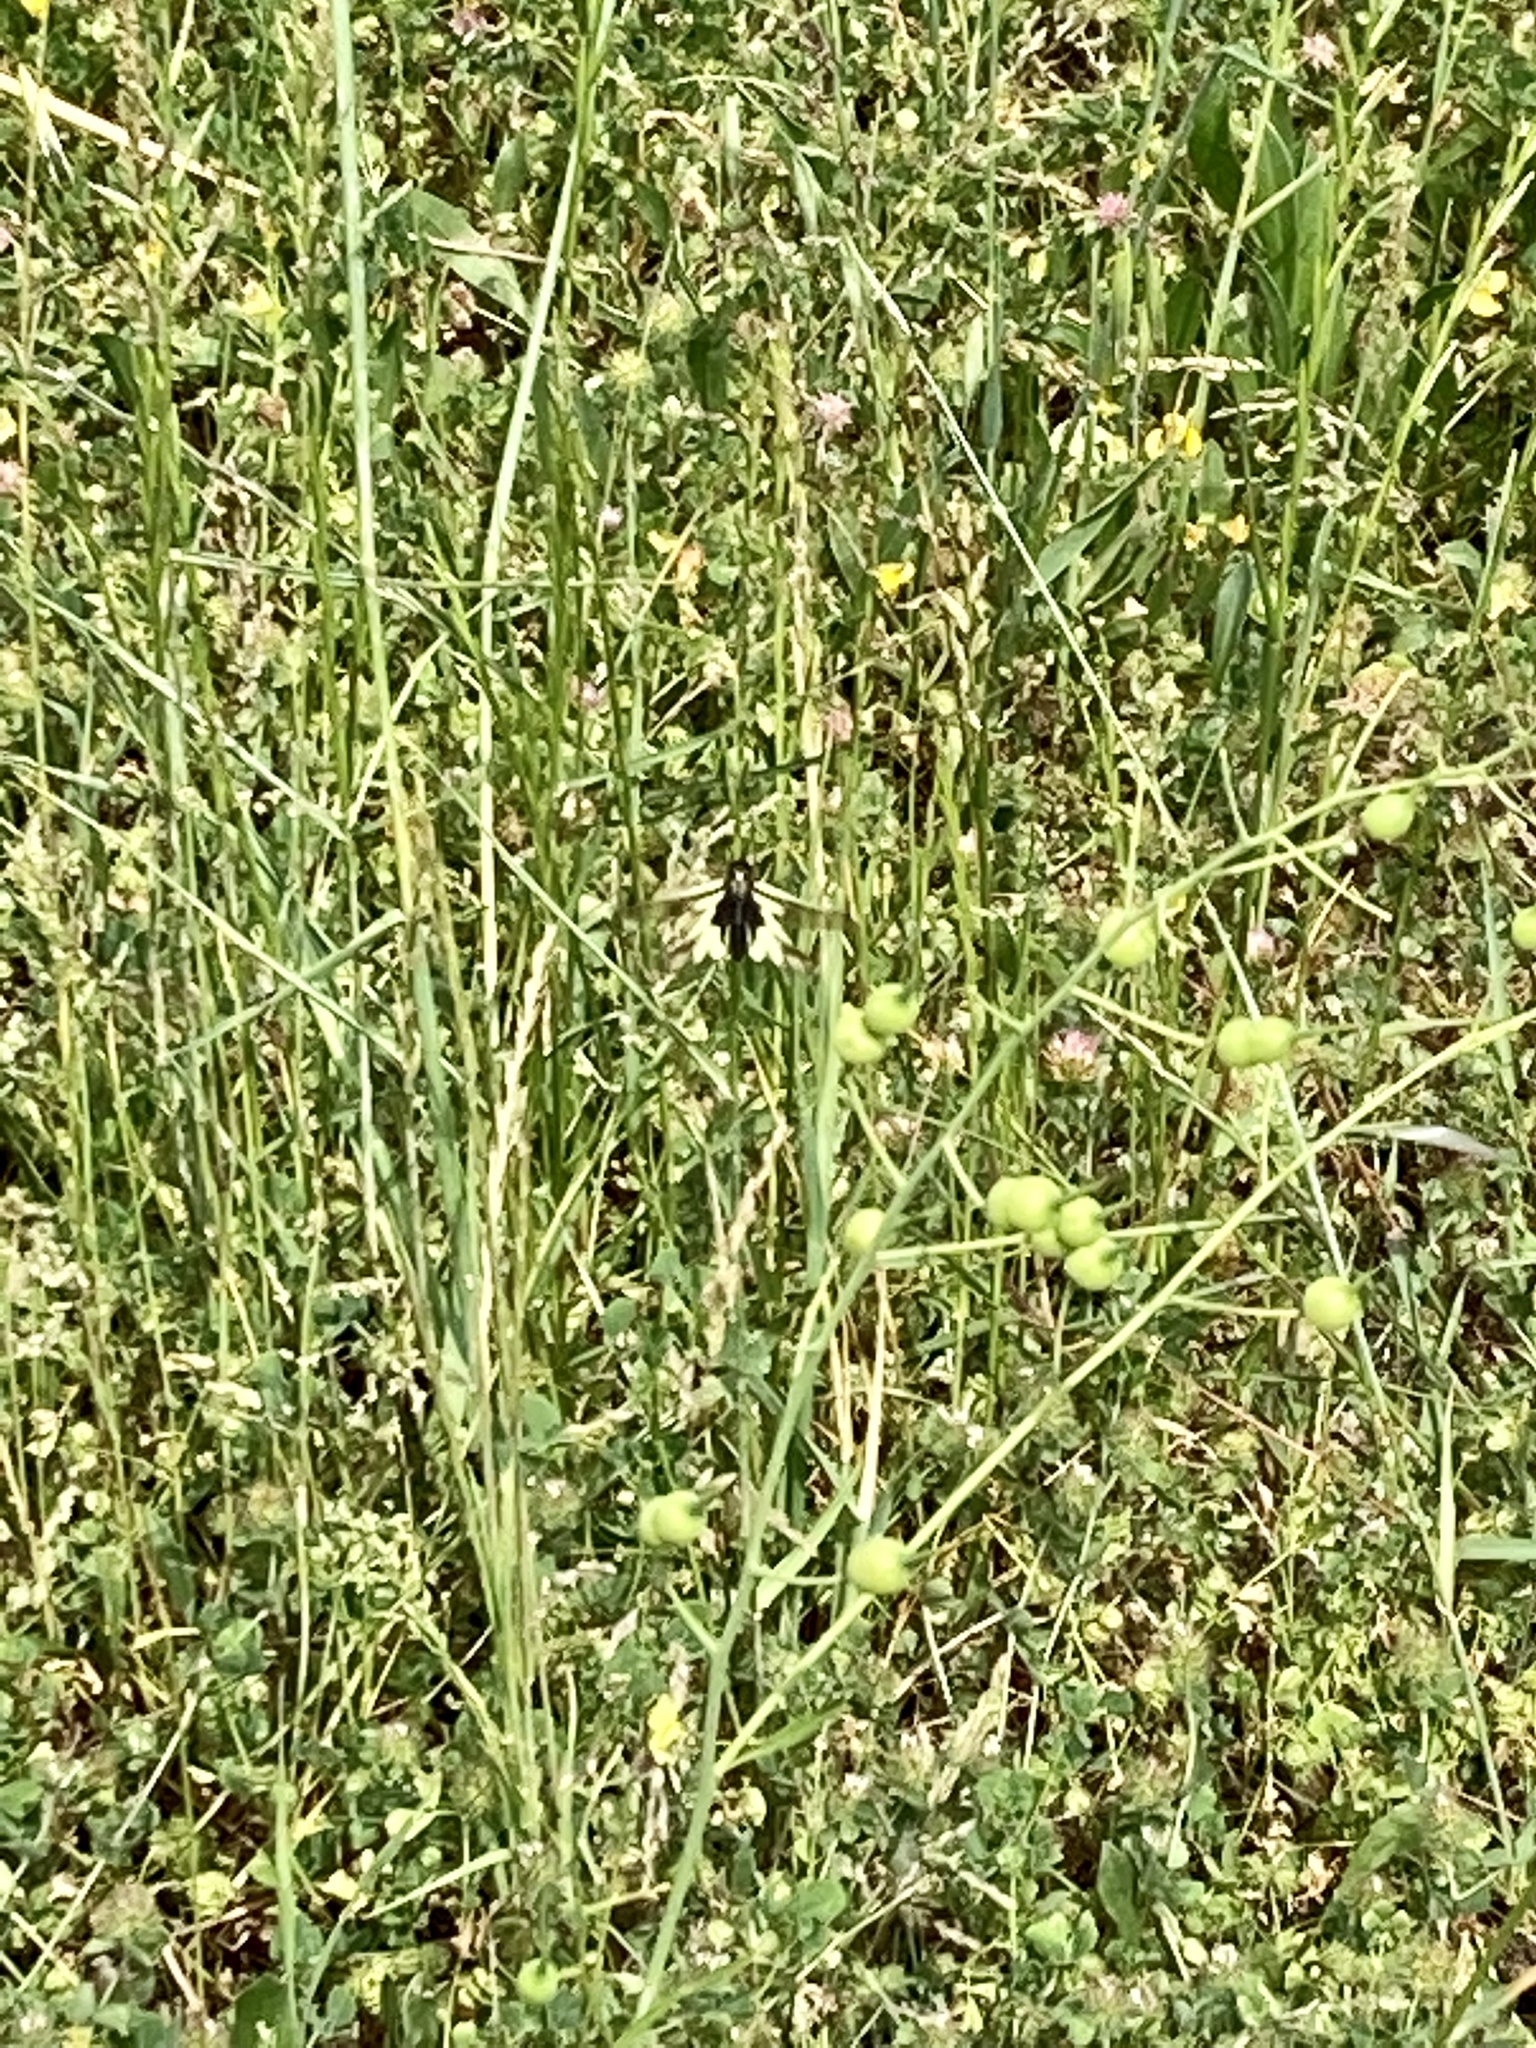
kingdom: Animalia
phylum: Arthropoda
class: Insecta
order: Neuroptera
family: Ascalaphidae
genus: Libelloides
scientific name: Libelloides coccajus
